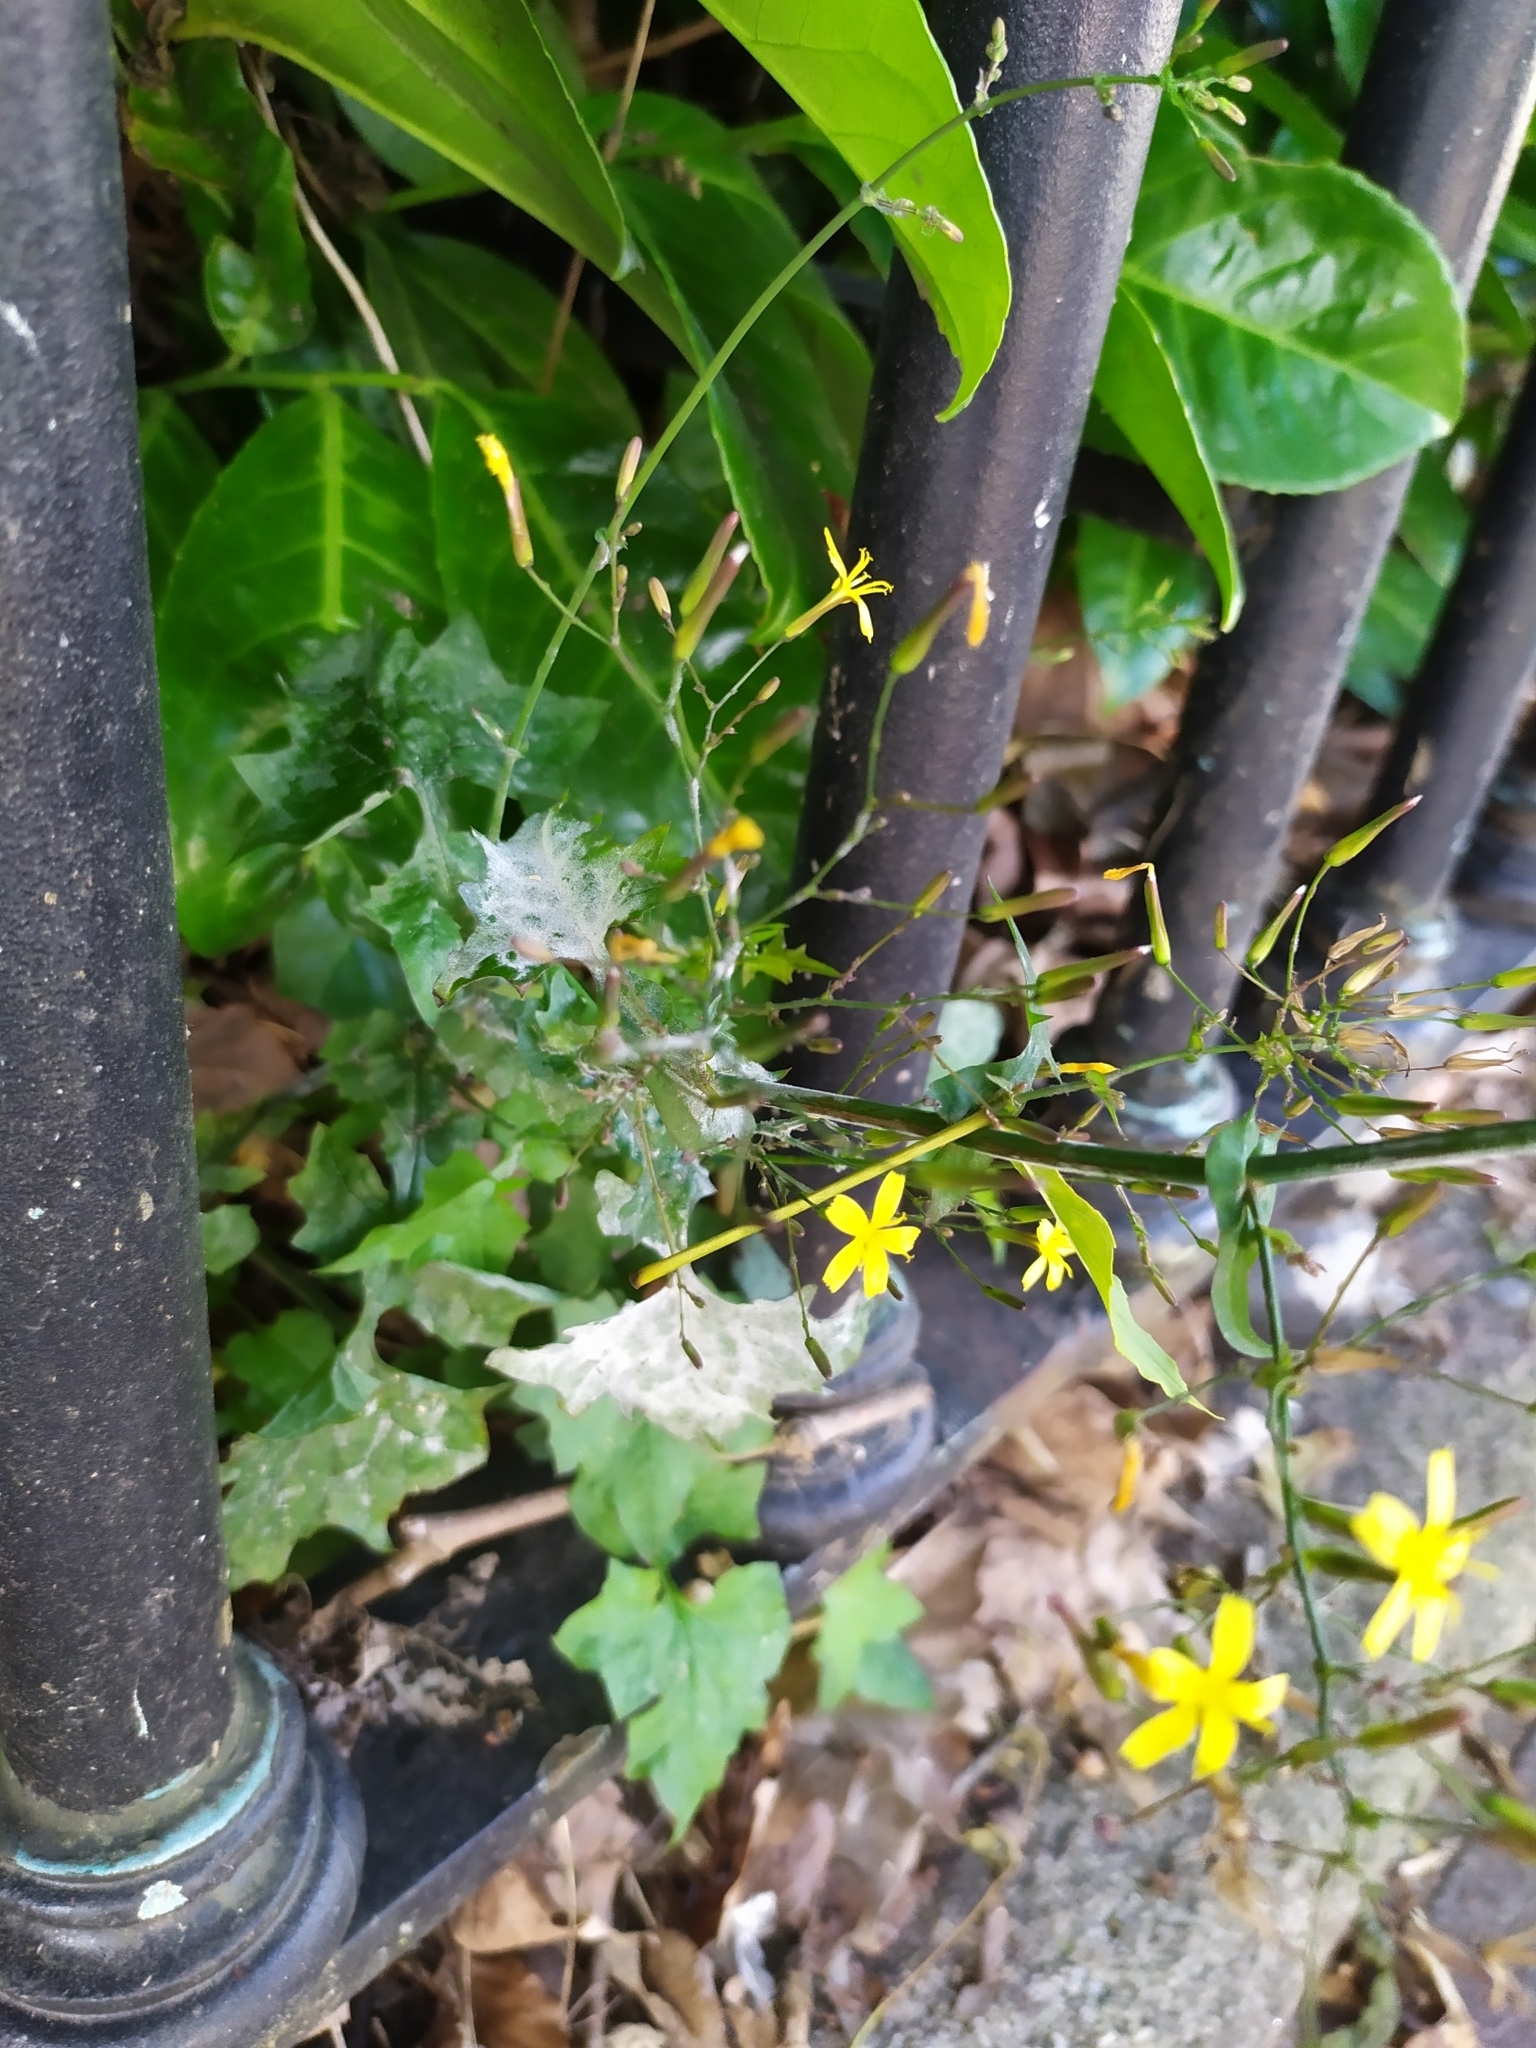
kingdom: Plantae
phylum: Tracheophyta
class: Magnoliopsida
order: Asterales
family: Asteraceae
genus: Mycelis
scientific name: Mycelis muralis
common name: Wall lettuce
